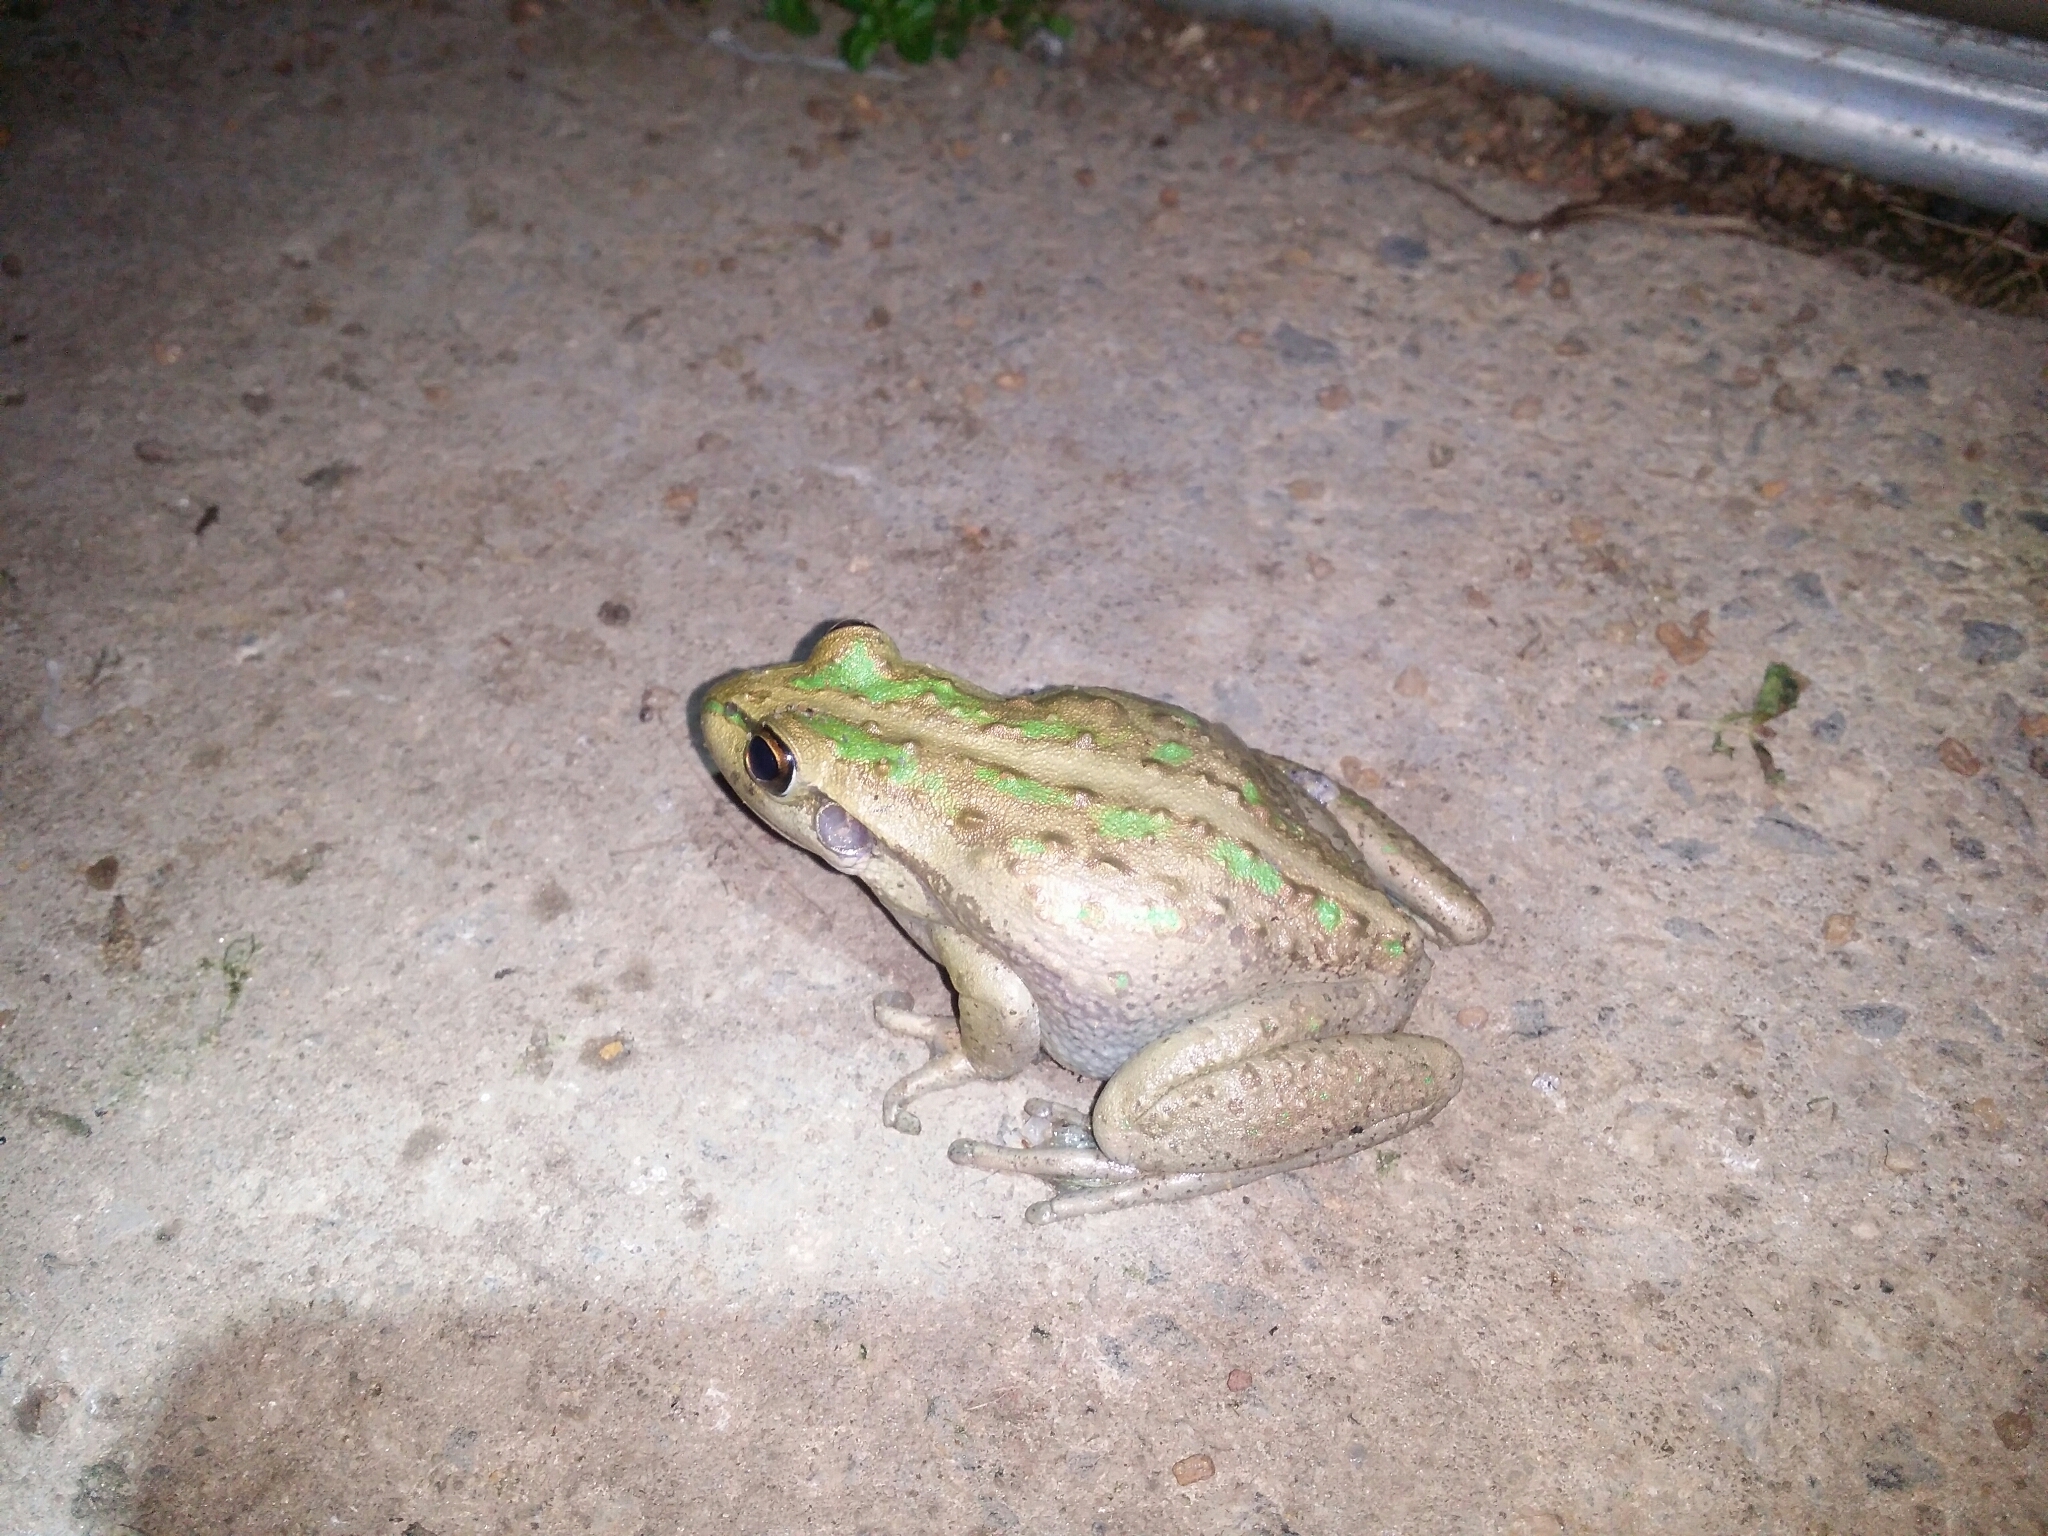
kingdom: Animalia
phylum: Chordata
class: Amphibia
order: Anura
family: Pelodryadidae
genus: Ranoidea
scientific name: Ranoidea moorei
